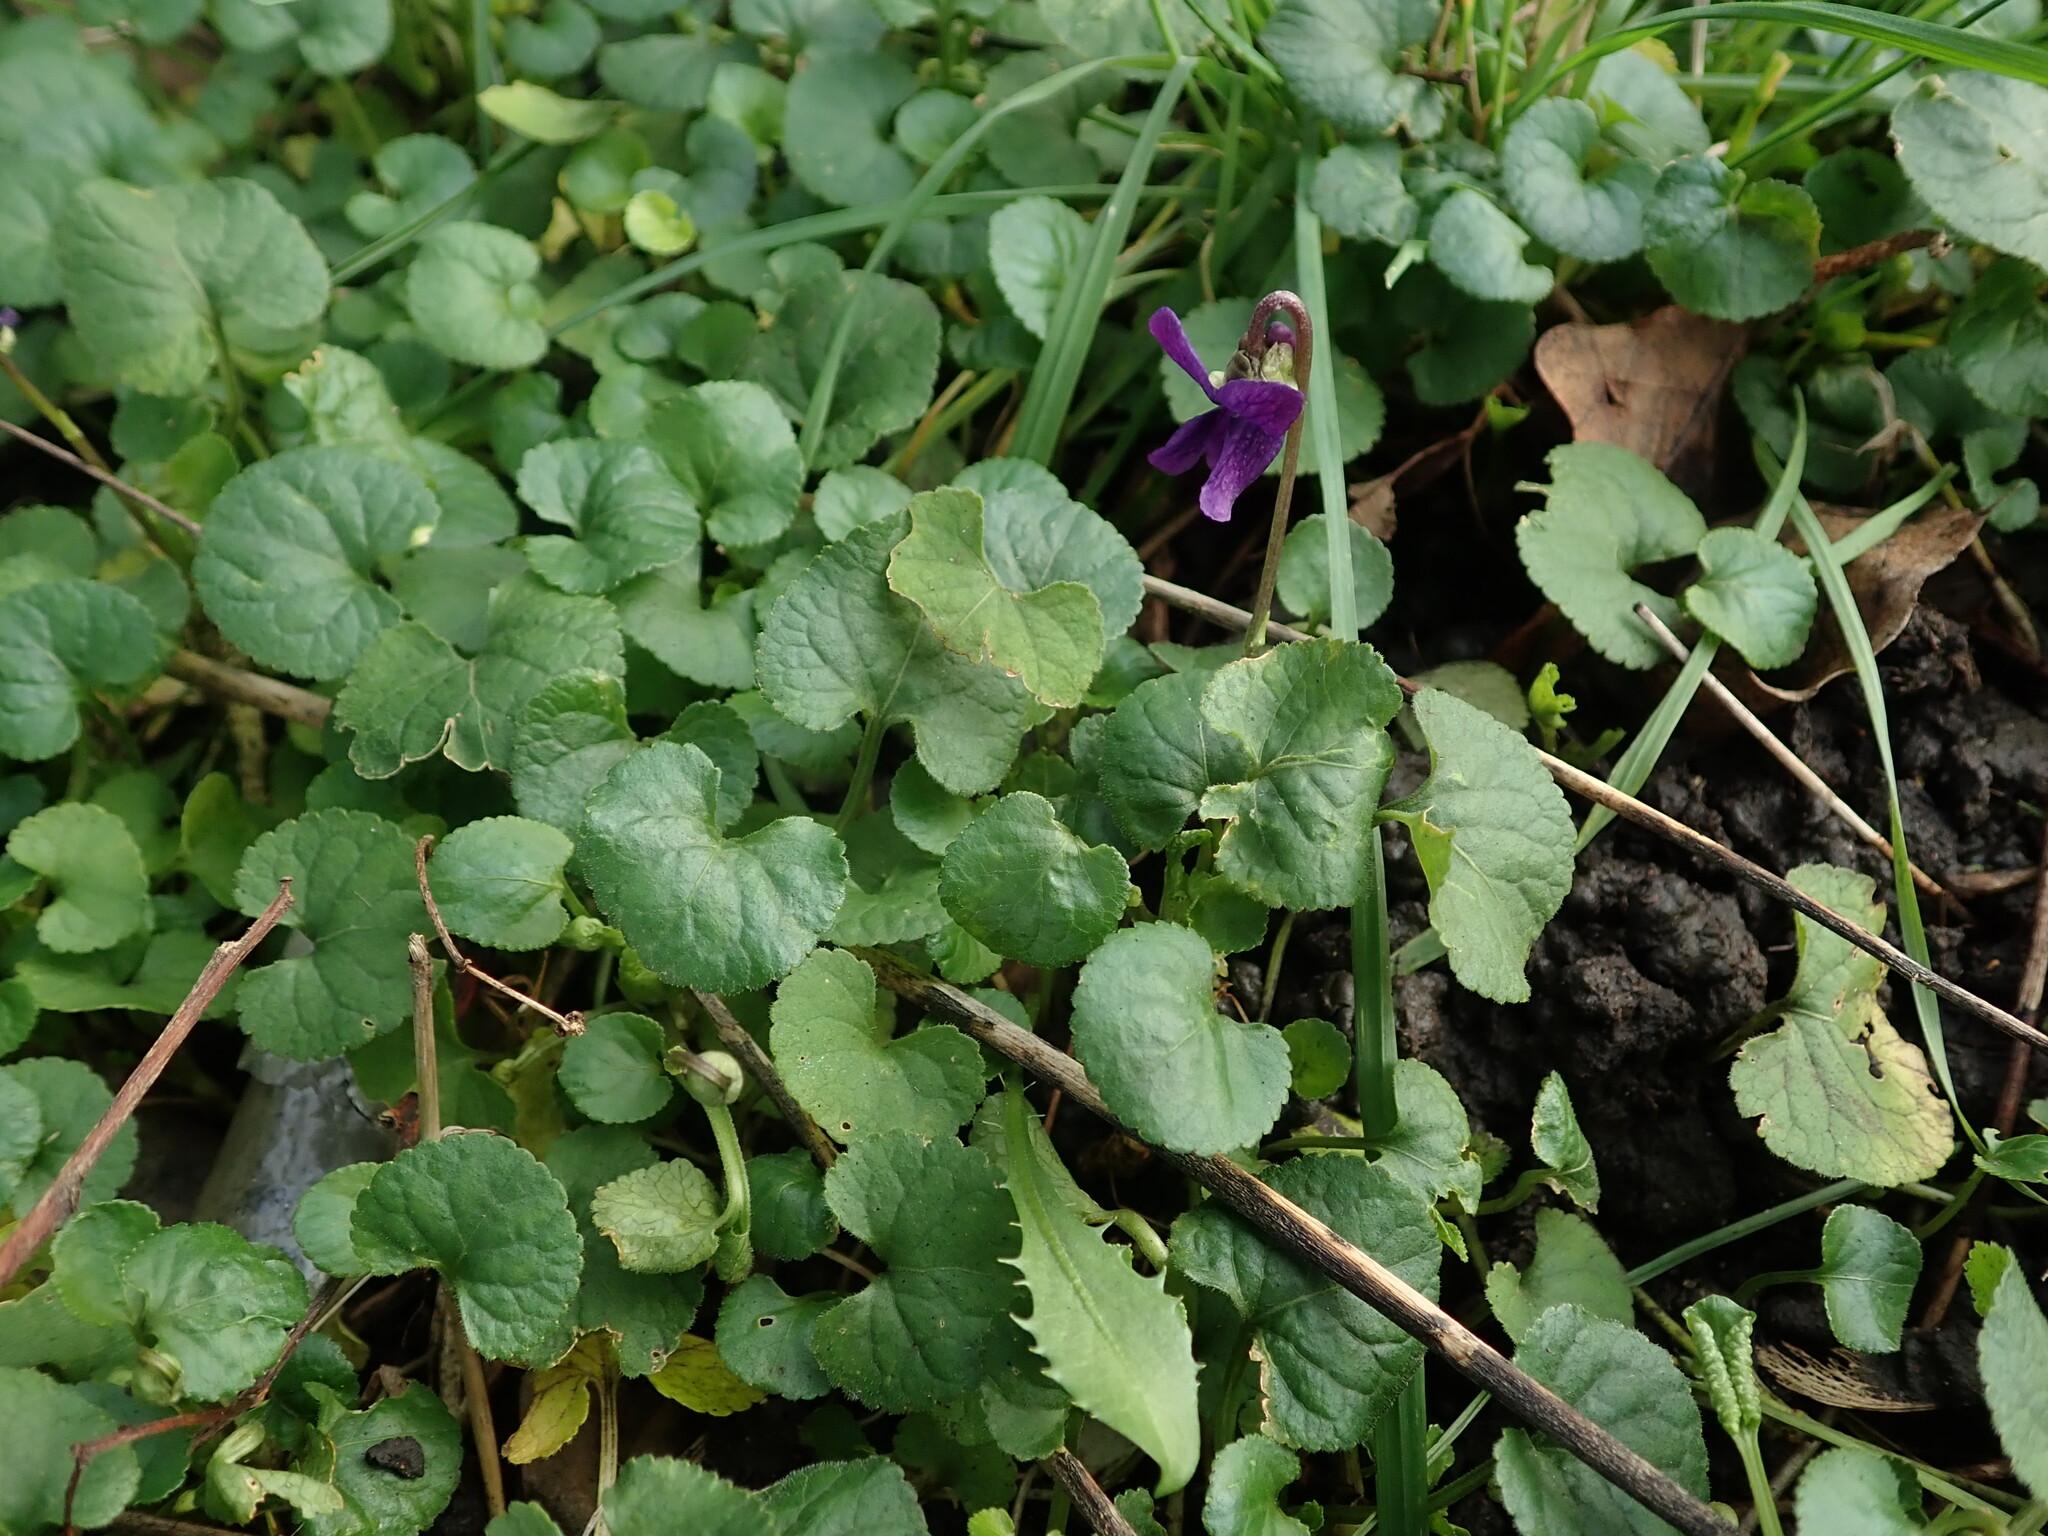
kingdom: Plantae
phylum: Tracheophyta
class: Magnoliopsida
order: Malpighiales
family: Violaceae
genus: Viola
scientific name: Viola odorata
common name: Sweet violet
